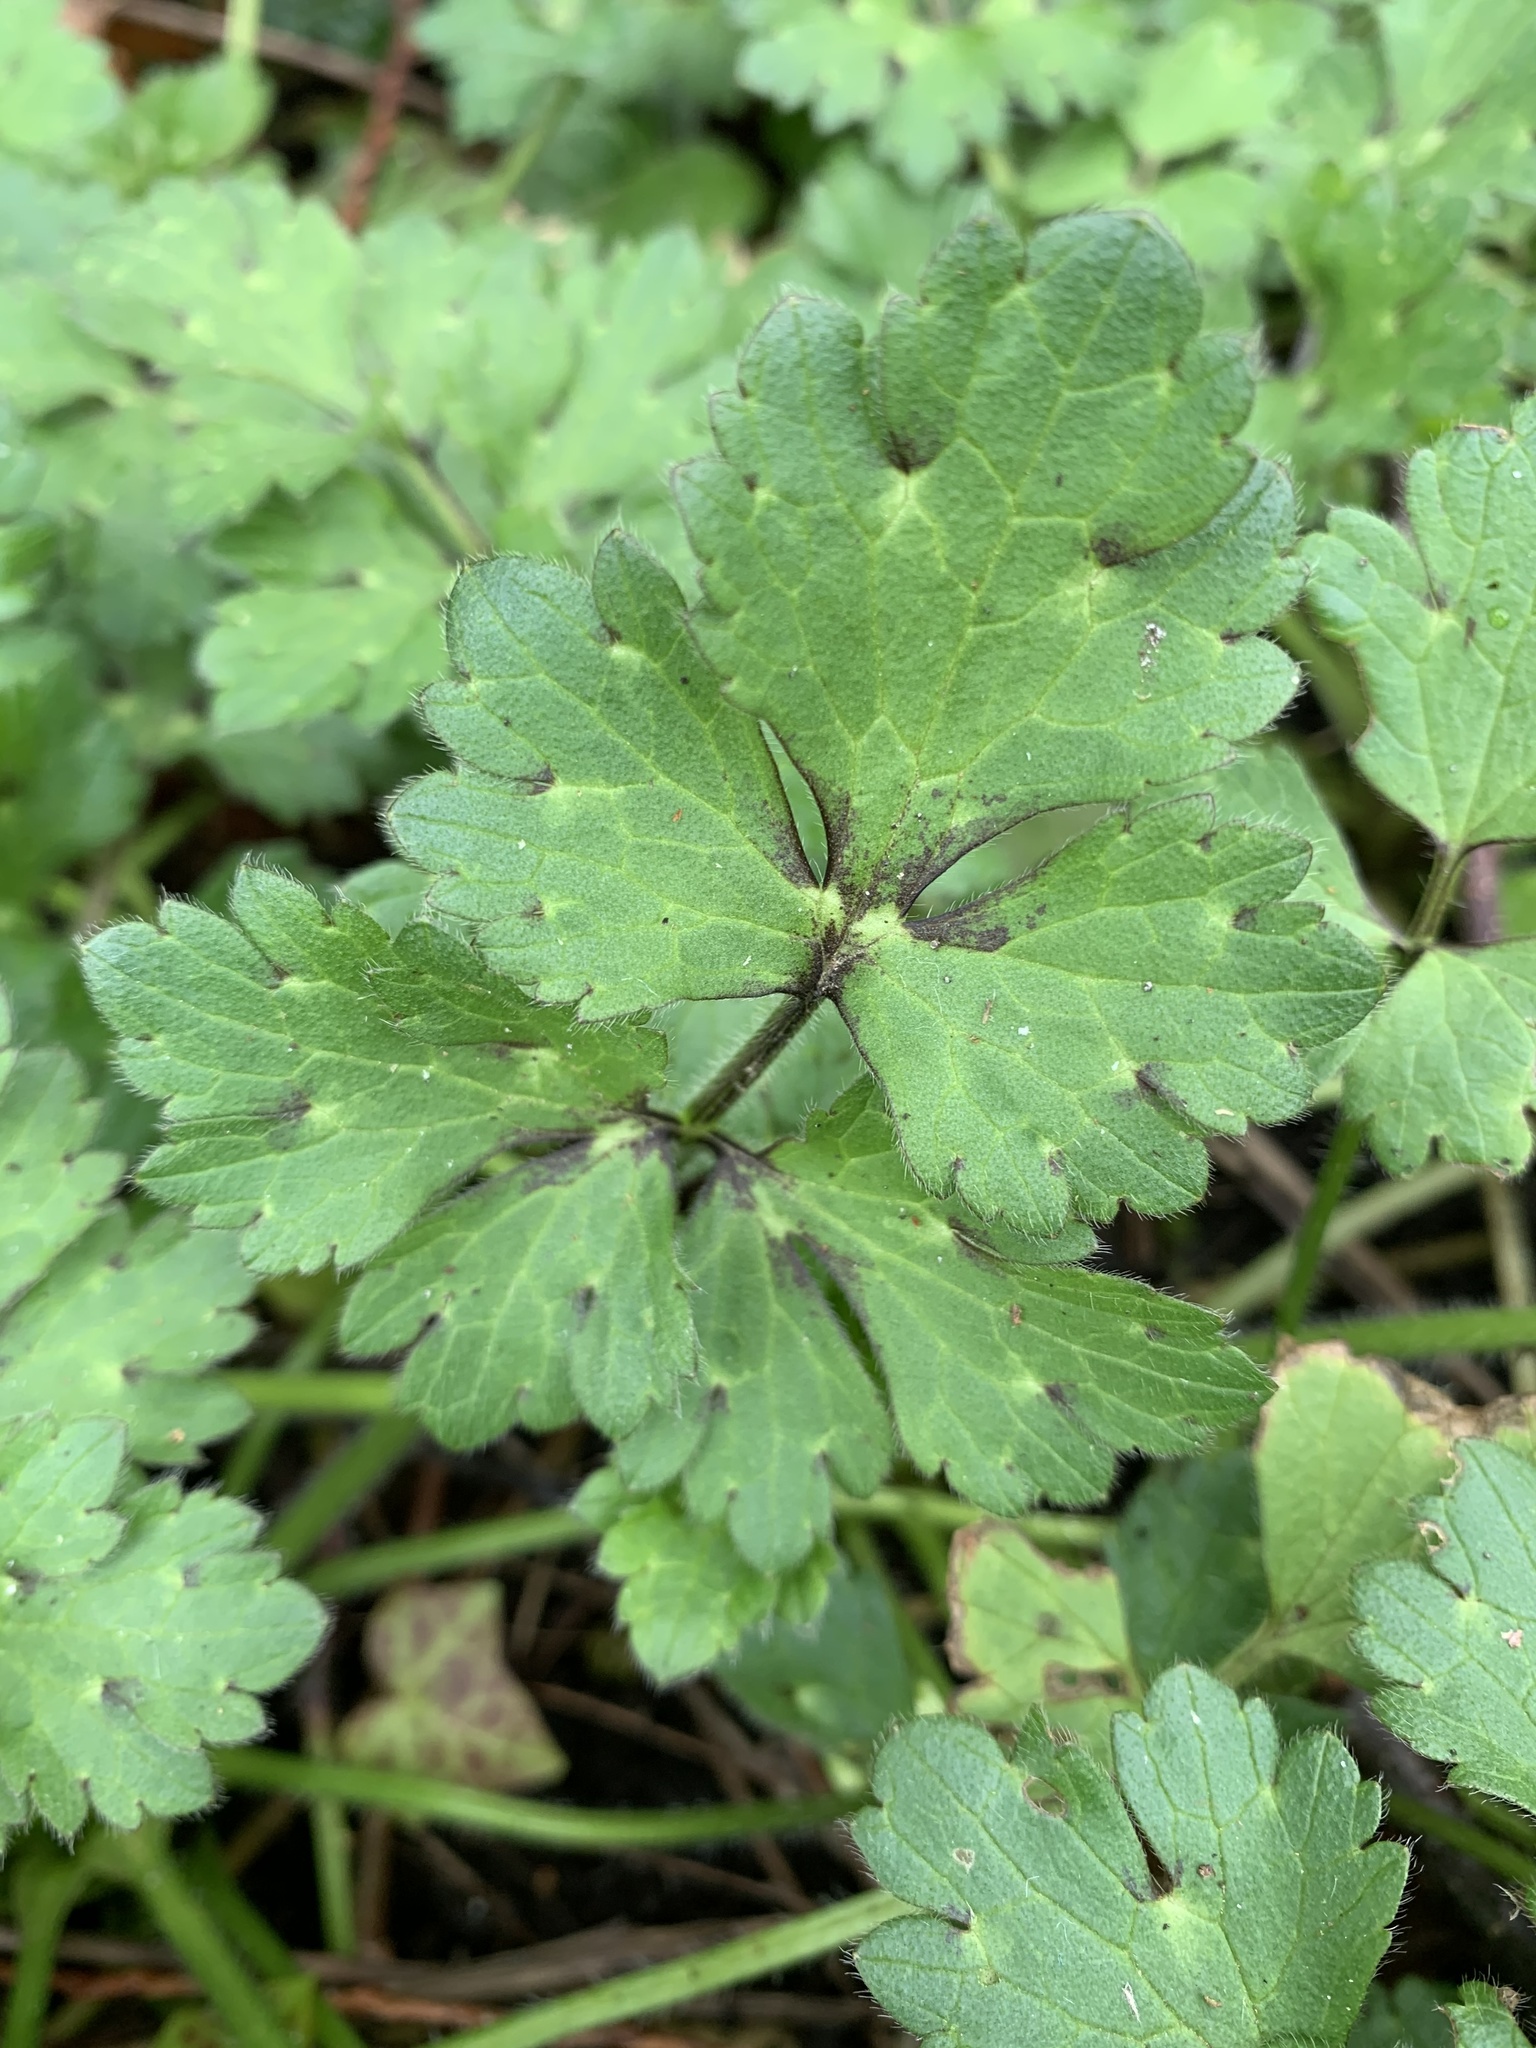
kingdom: Plantae
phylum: Tracheophyta
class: Magnoliopsida
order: Ranunculales
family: Ranunculaceae
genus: Ranunculus
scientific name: Ranunculus repens
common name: Creeping buttercup
